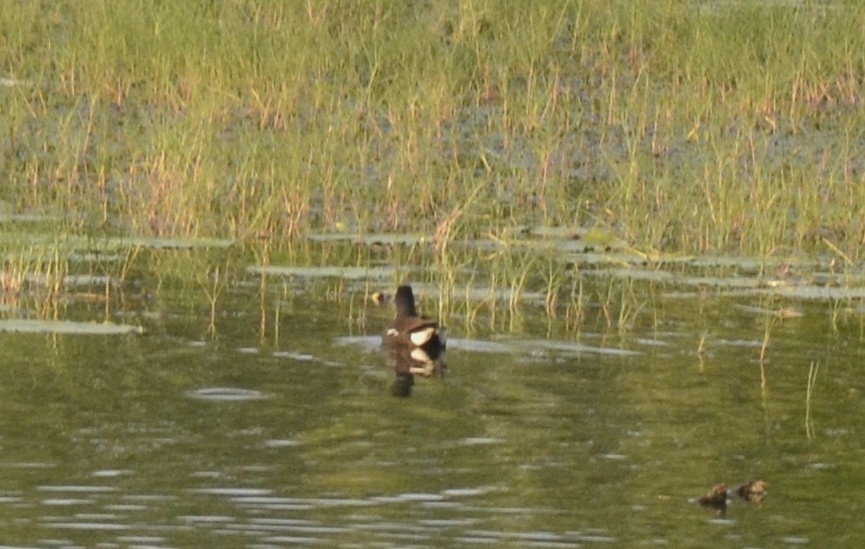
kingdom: Animalia
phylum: Chordata
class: Aves
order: Gruiformes
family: Rallidae
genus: Gallinula
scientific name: Gallinula chloropus
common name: Common moorhen
